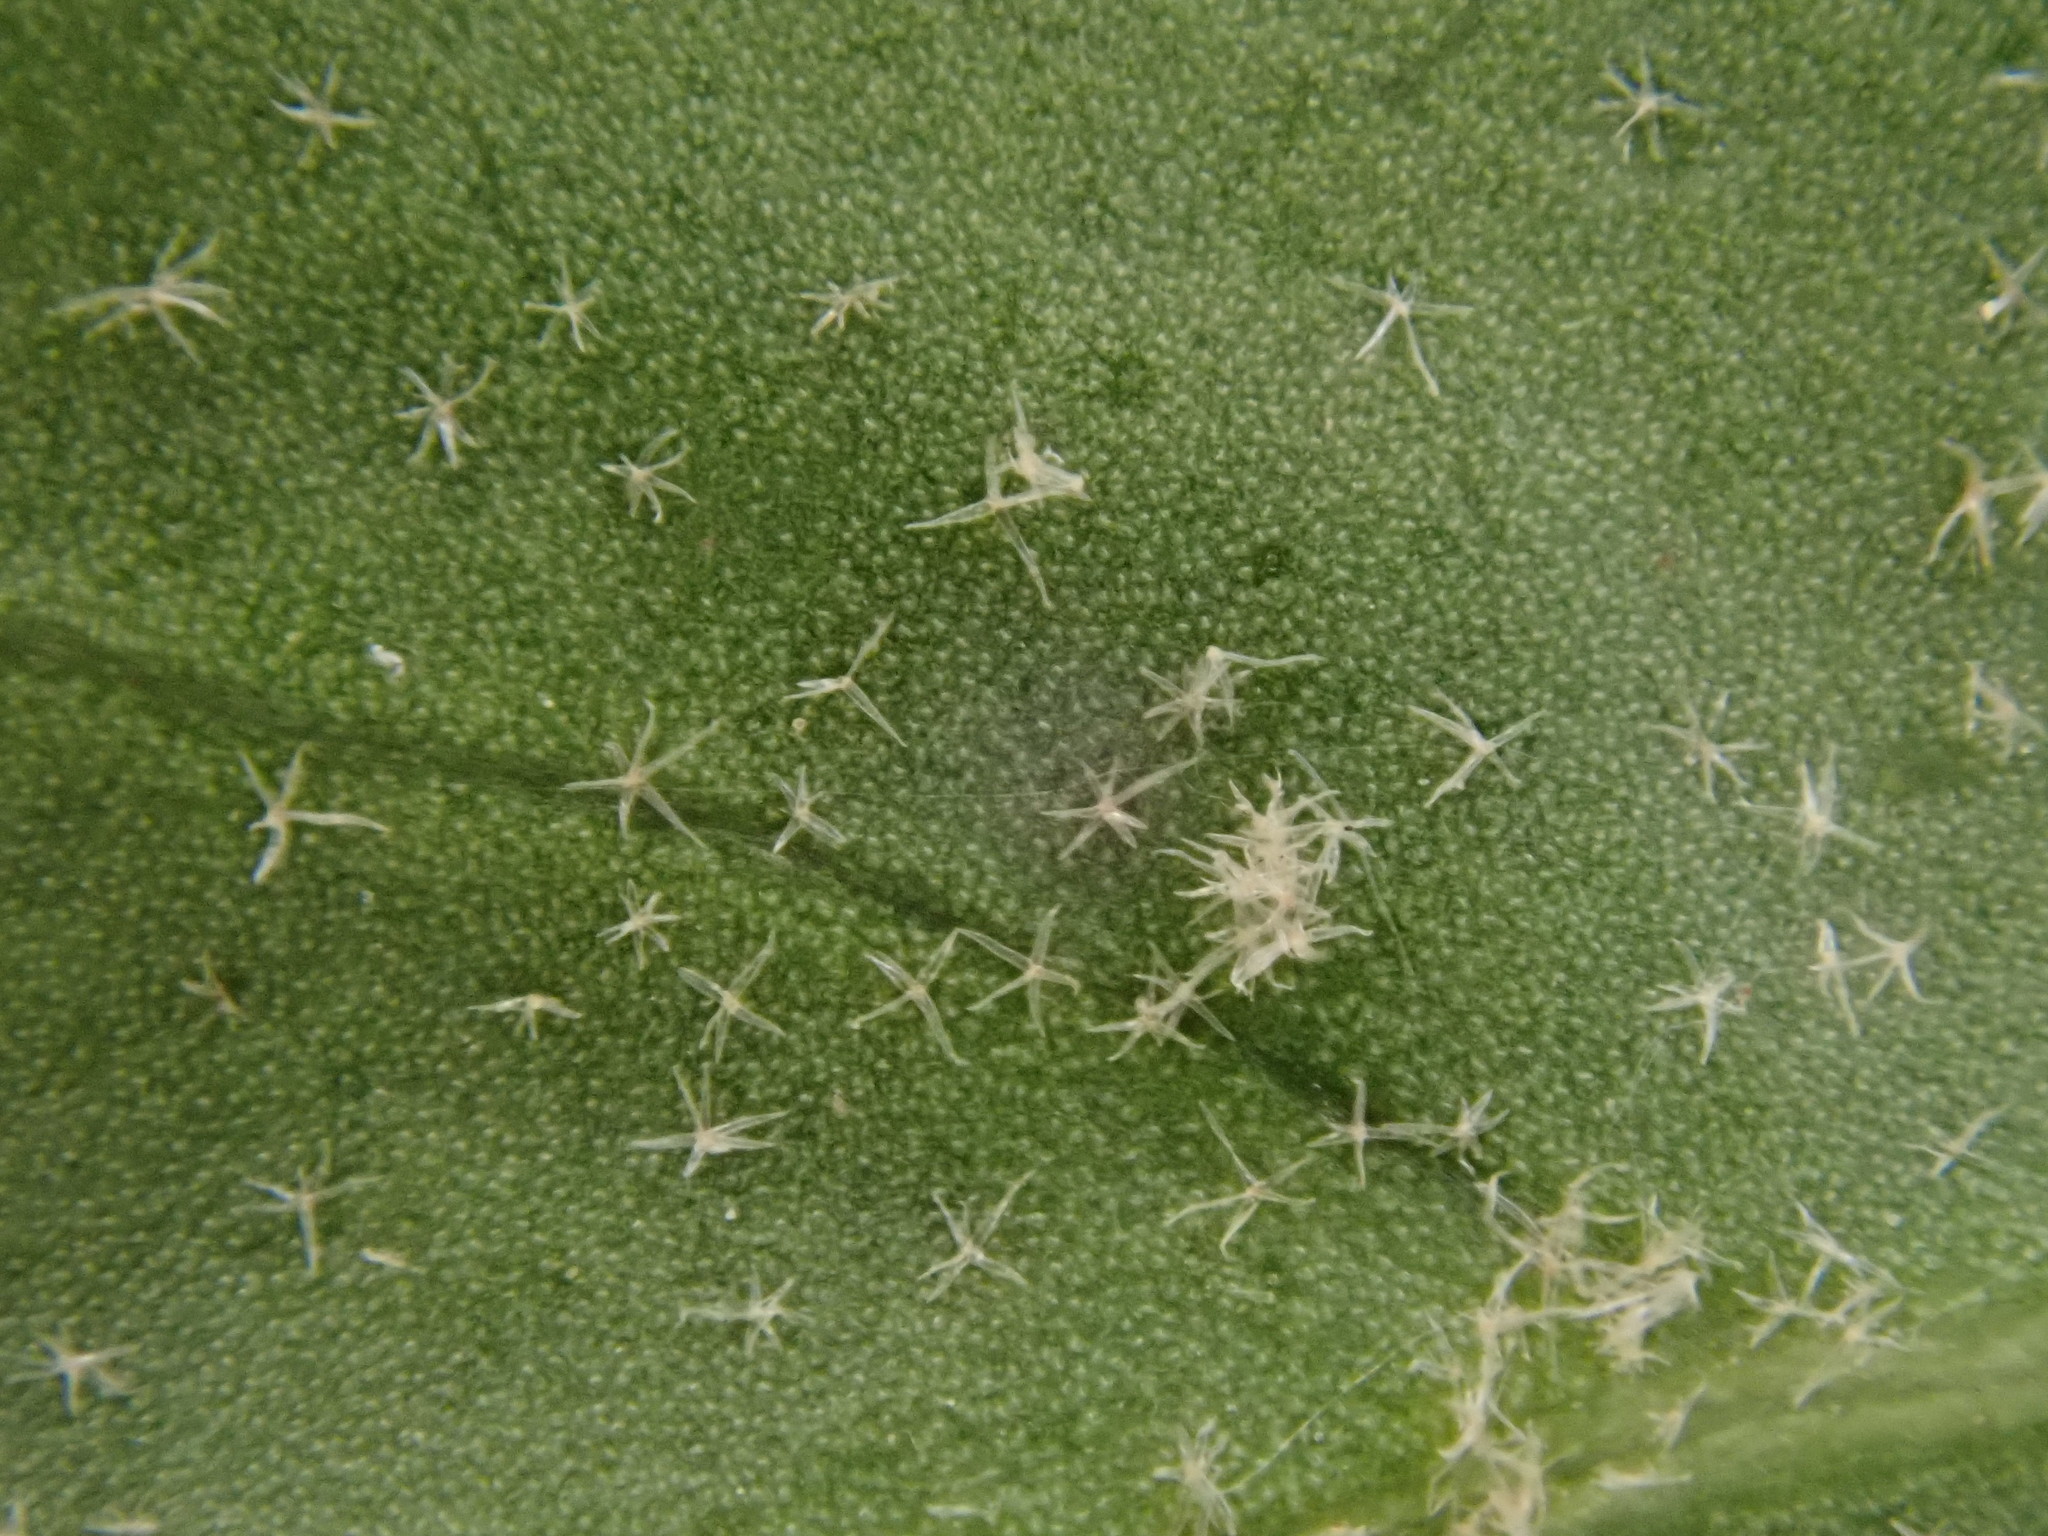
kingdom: Plantae
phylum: Tracheophyta
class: Magnoliopsida
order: Apiales
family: Araliaceae
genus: Hedera
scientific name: Hedera helix
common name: Ivy
